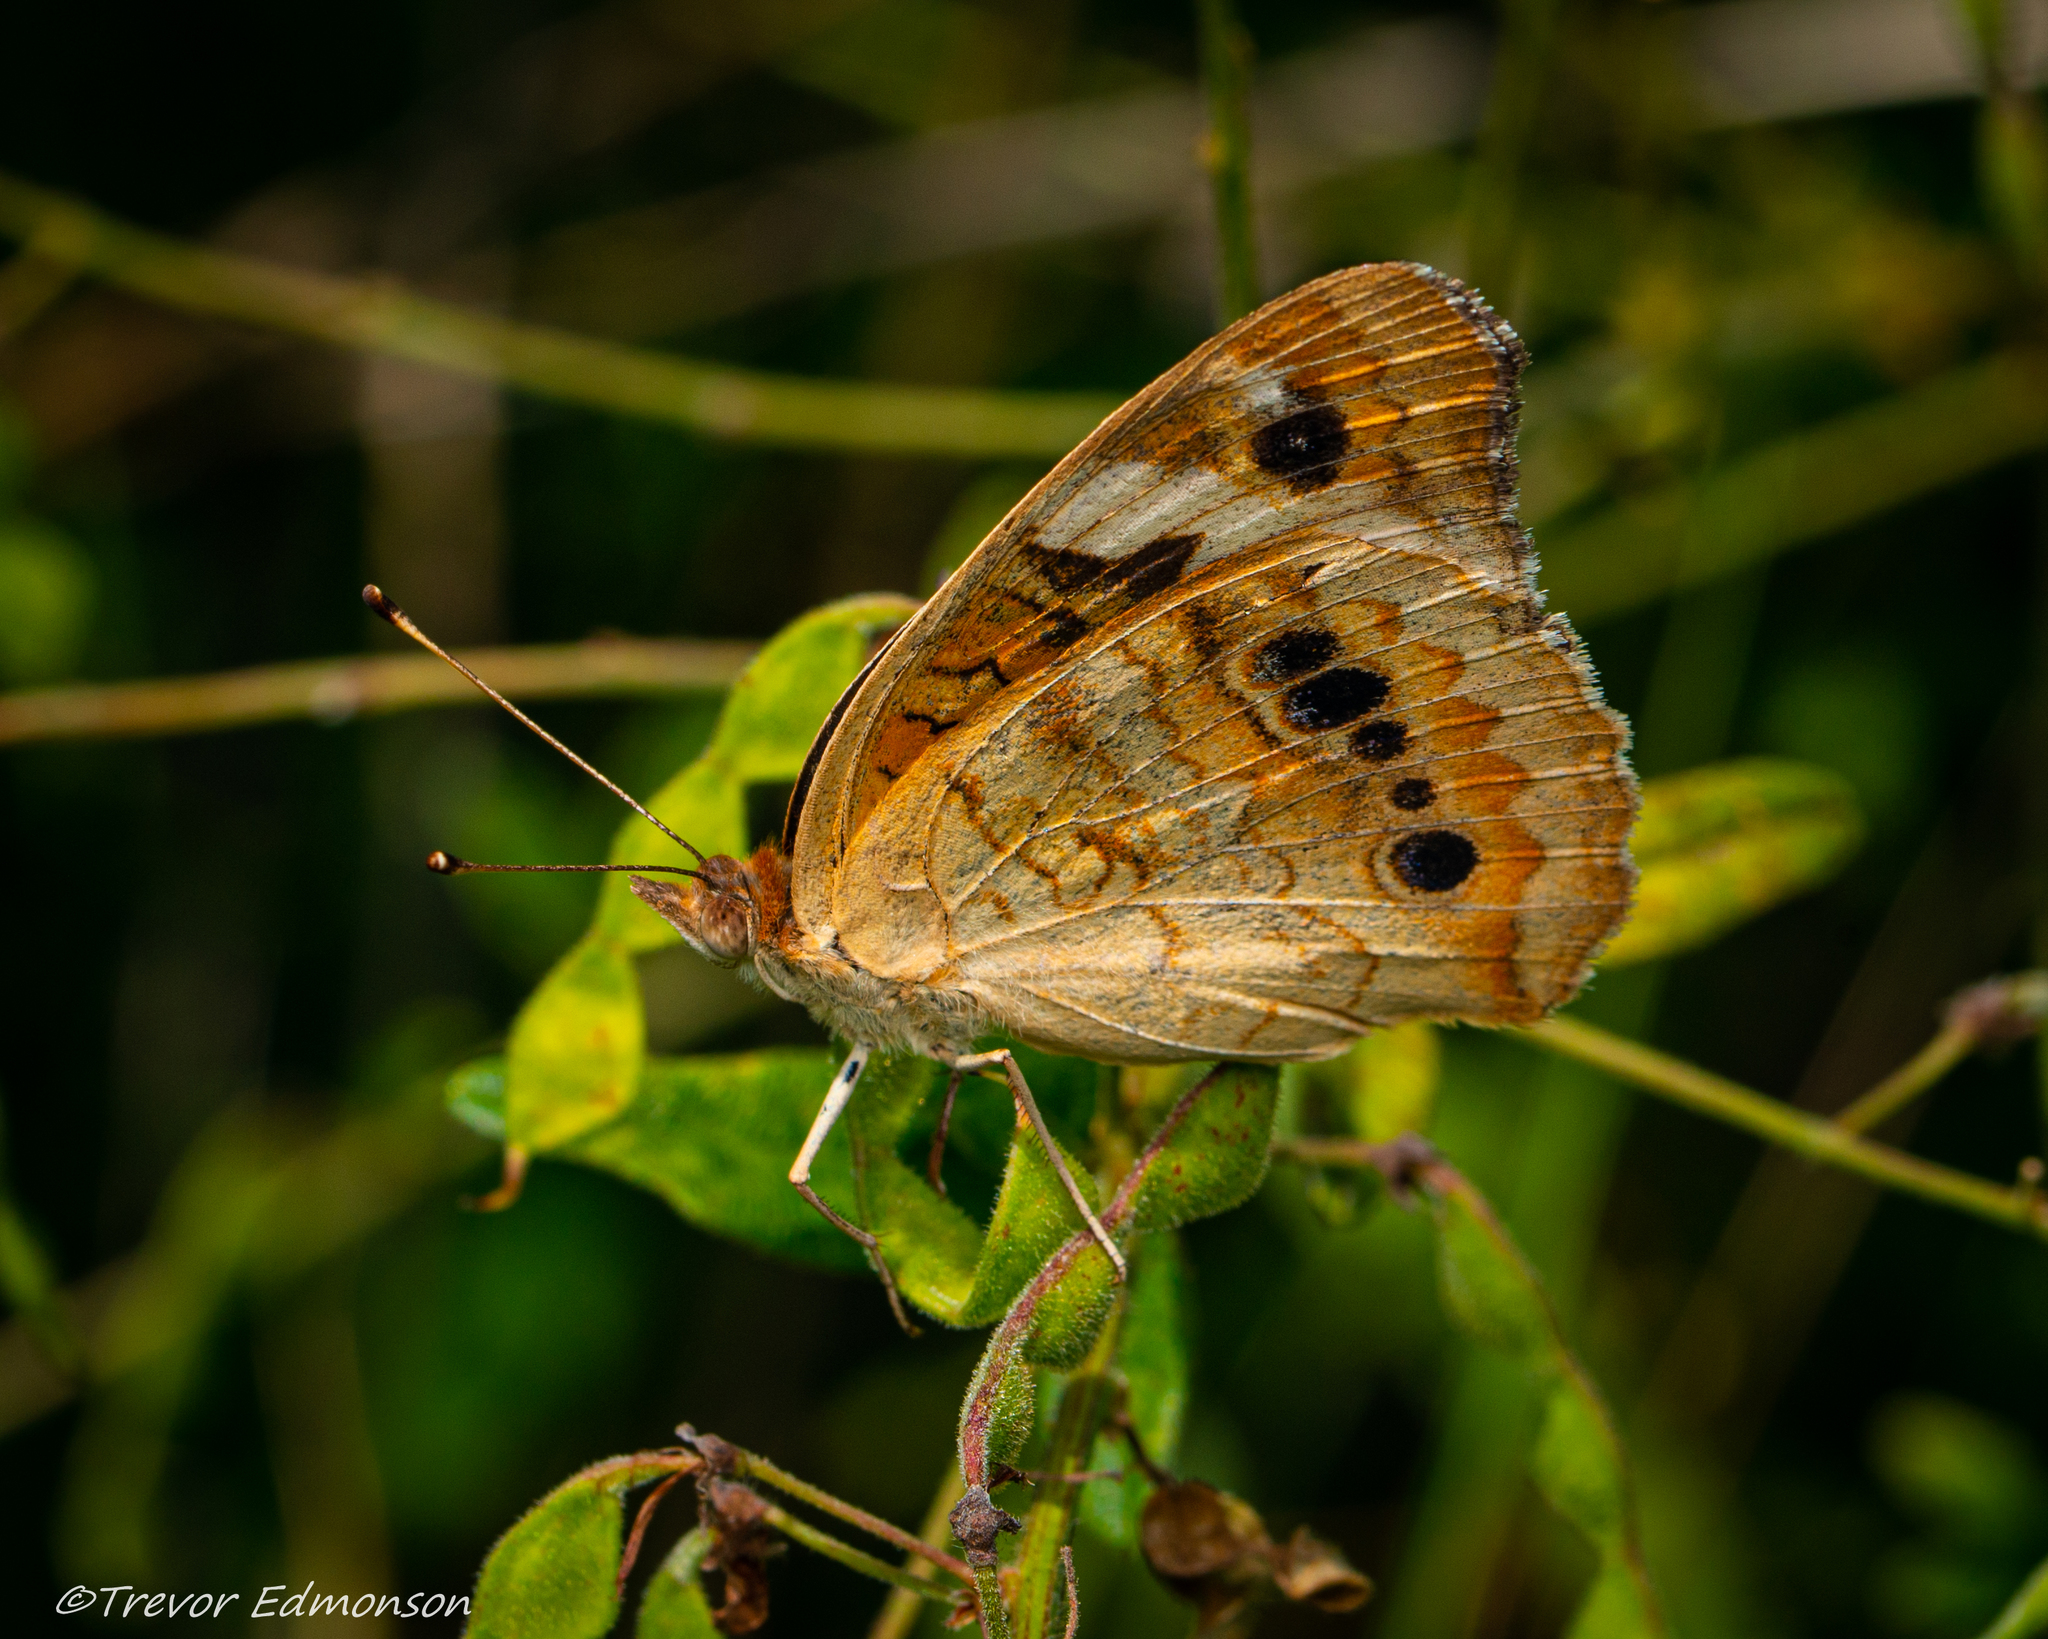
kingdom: Animalia
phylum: Arthropoda
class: Insecta
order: Lepidoptera
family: Nymphalidae
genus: Junonia
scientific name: Junonia coenia
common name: Common buckeye
